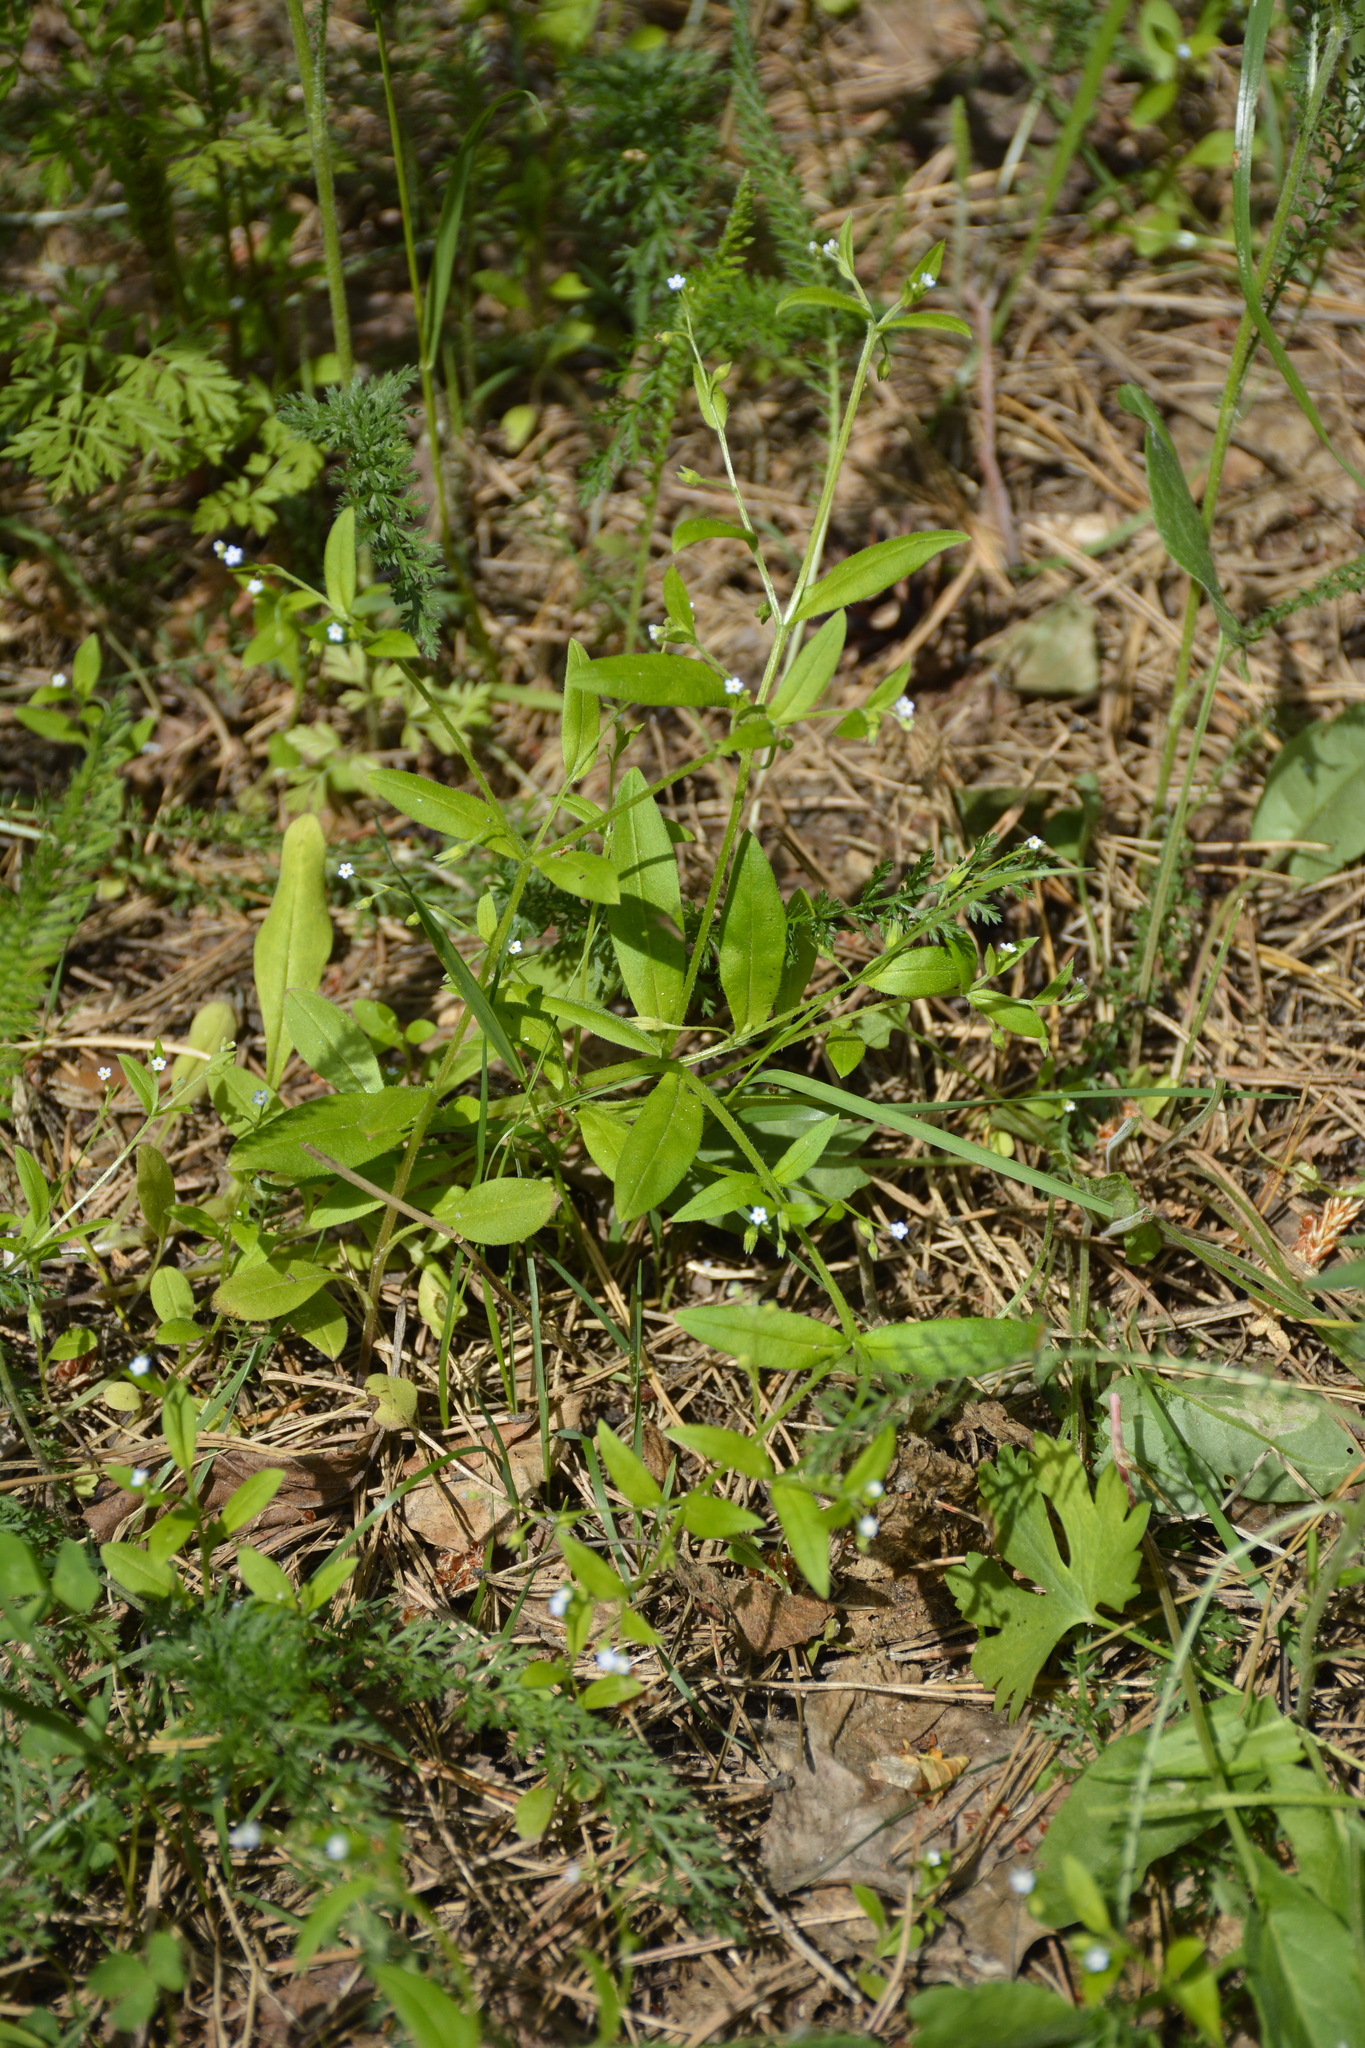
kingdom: Plantae
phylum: Tracheophyta
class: Magnoliopsida
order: Boraginales
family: Boraginaceae
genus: Myosotis
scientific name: Myosotis sparsiflora
